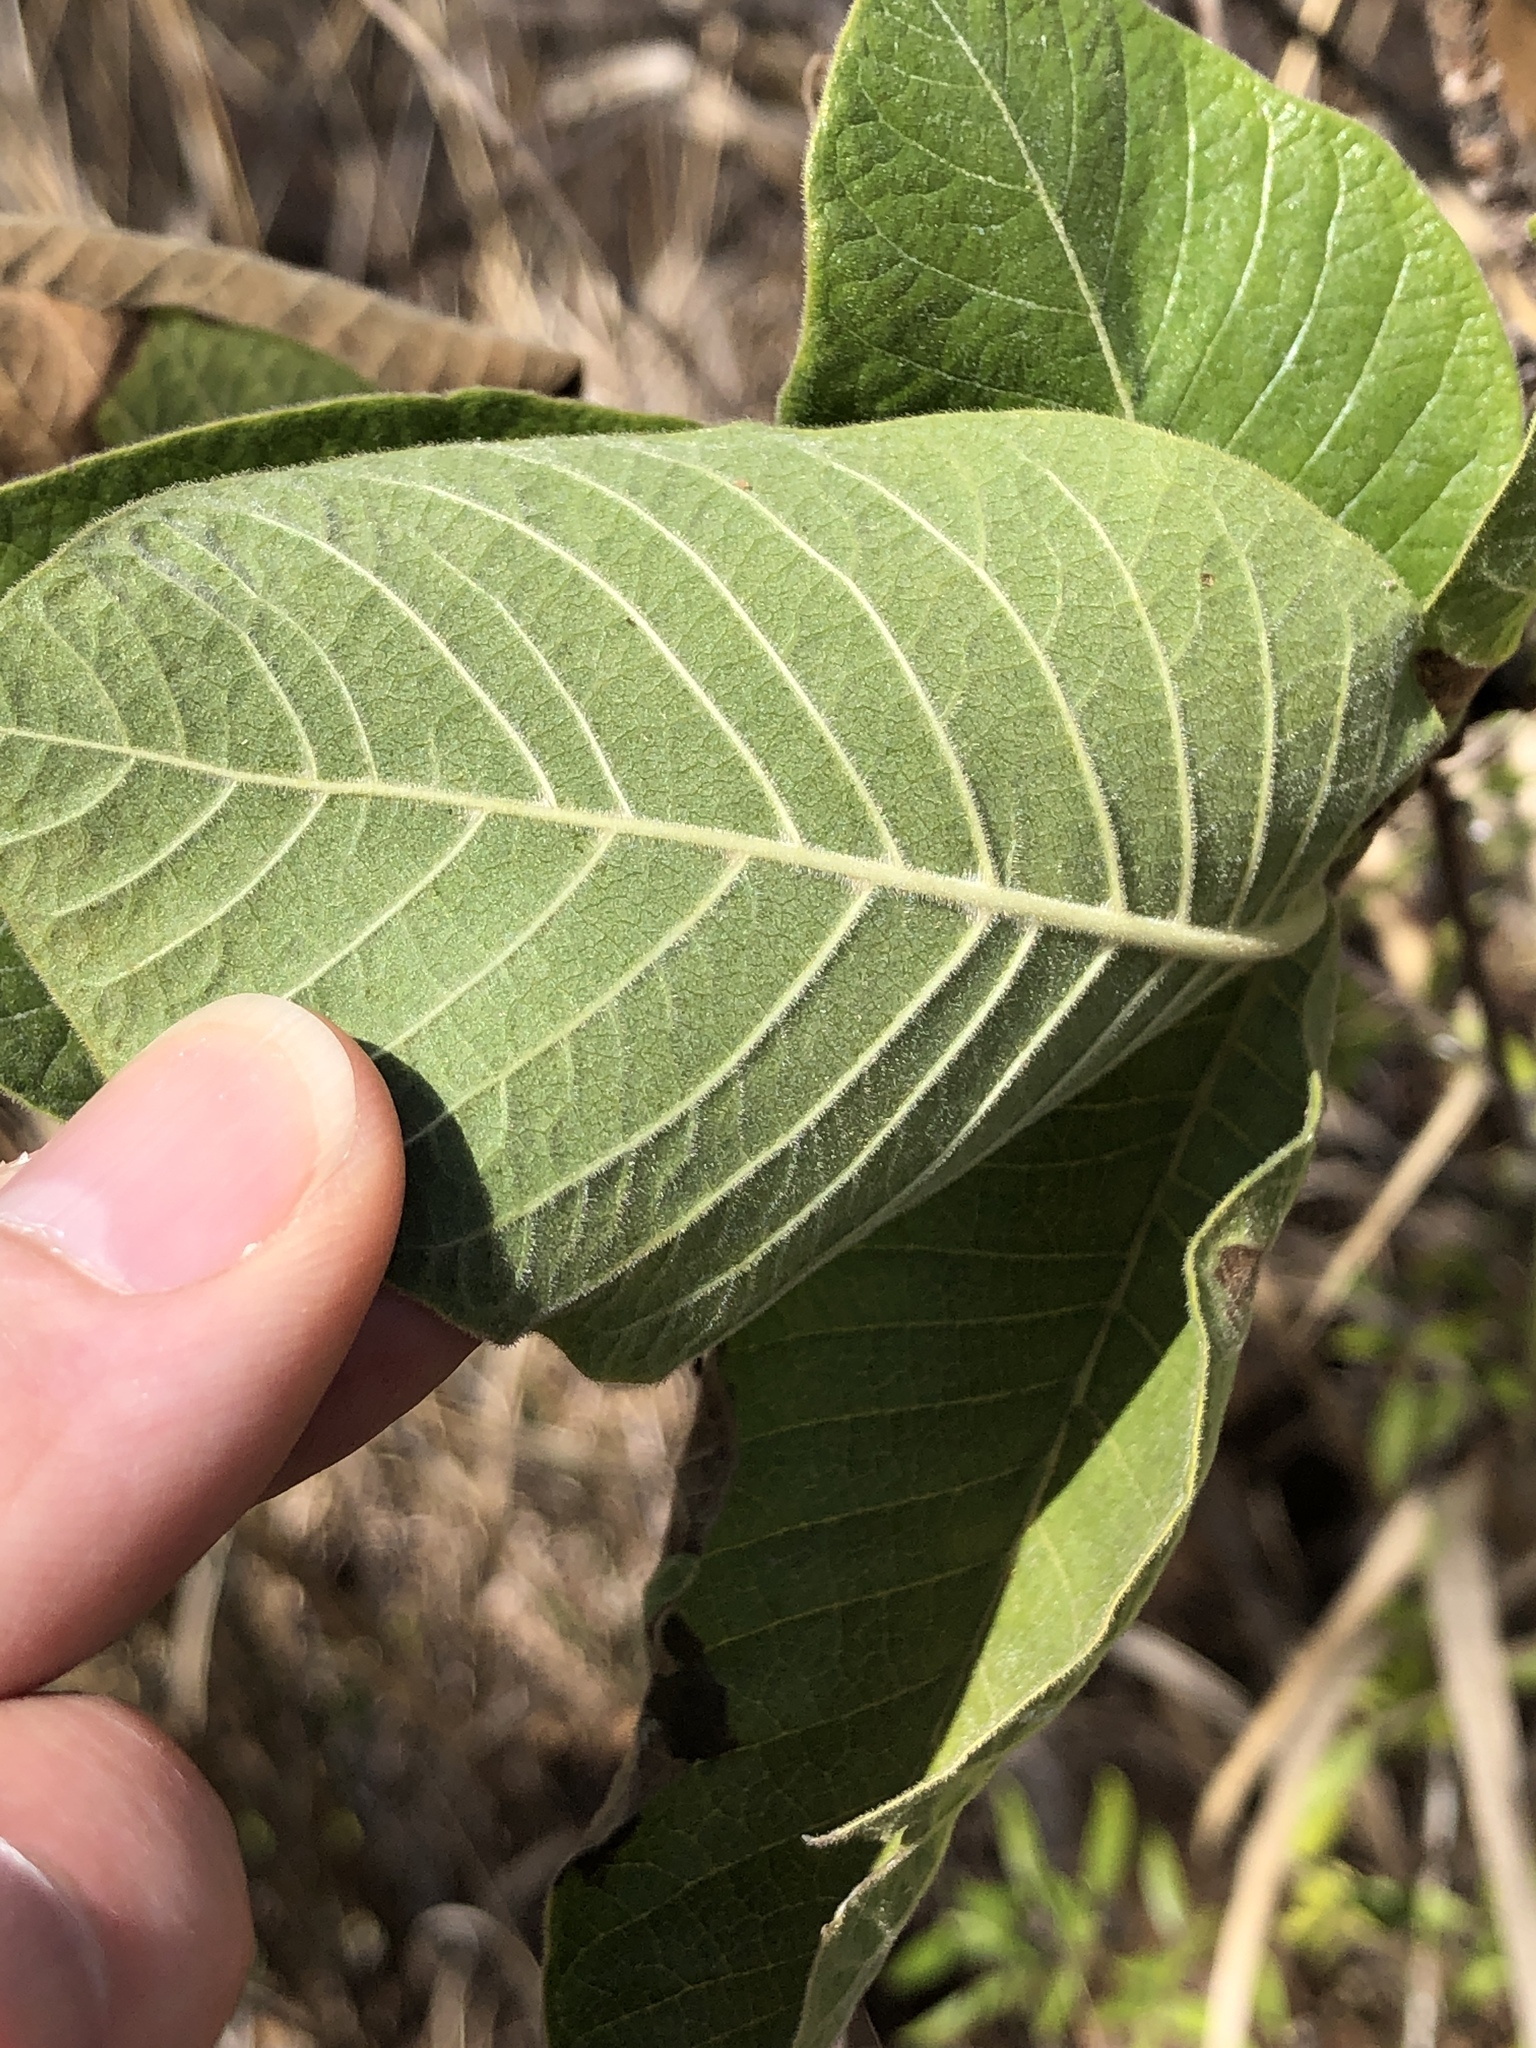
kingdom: Plantae
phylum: Tracheophyta
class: Magnoliopsida
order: Gentianales
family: Rubiaceae
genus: Larsenaikia
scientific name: Larsenaikia ochreata
